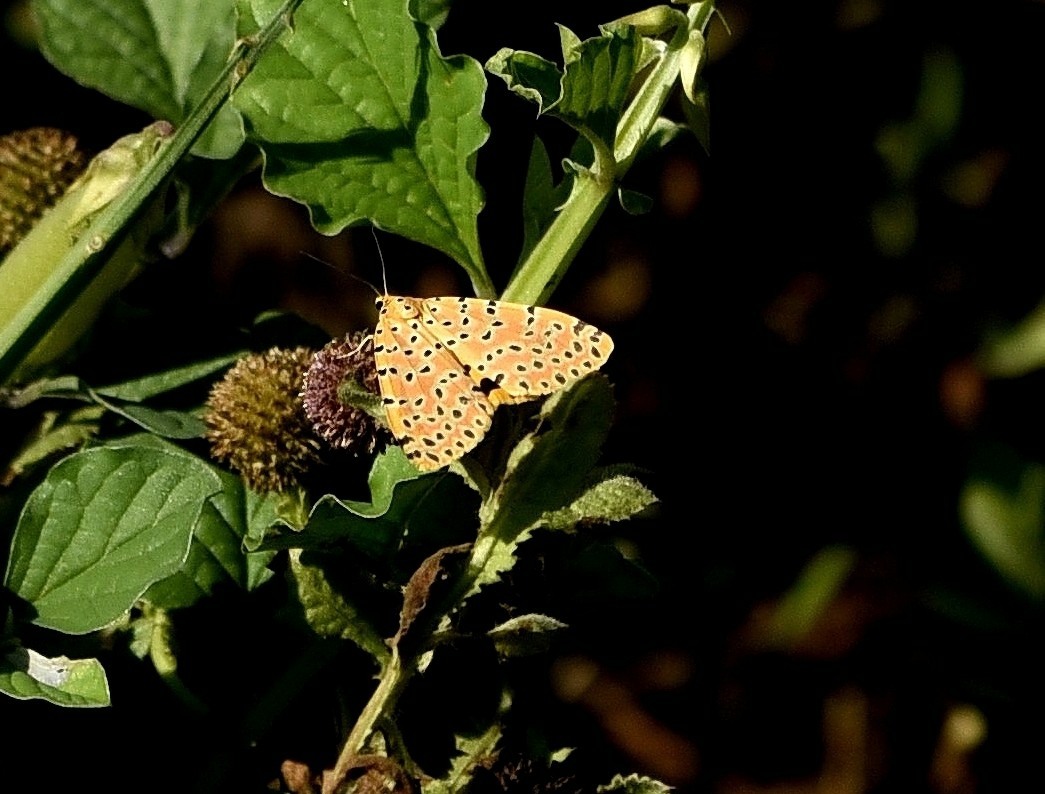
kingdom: Animalia
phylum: Arthropoda
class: Insecta
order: Lepidoptera
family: Erebidae
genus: Argina
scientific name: Argina astrea
